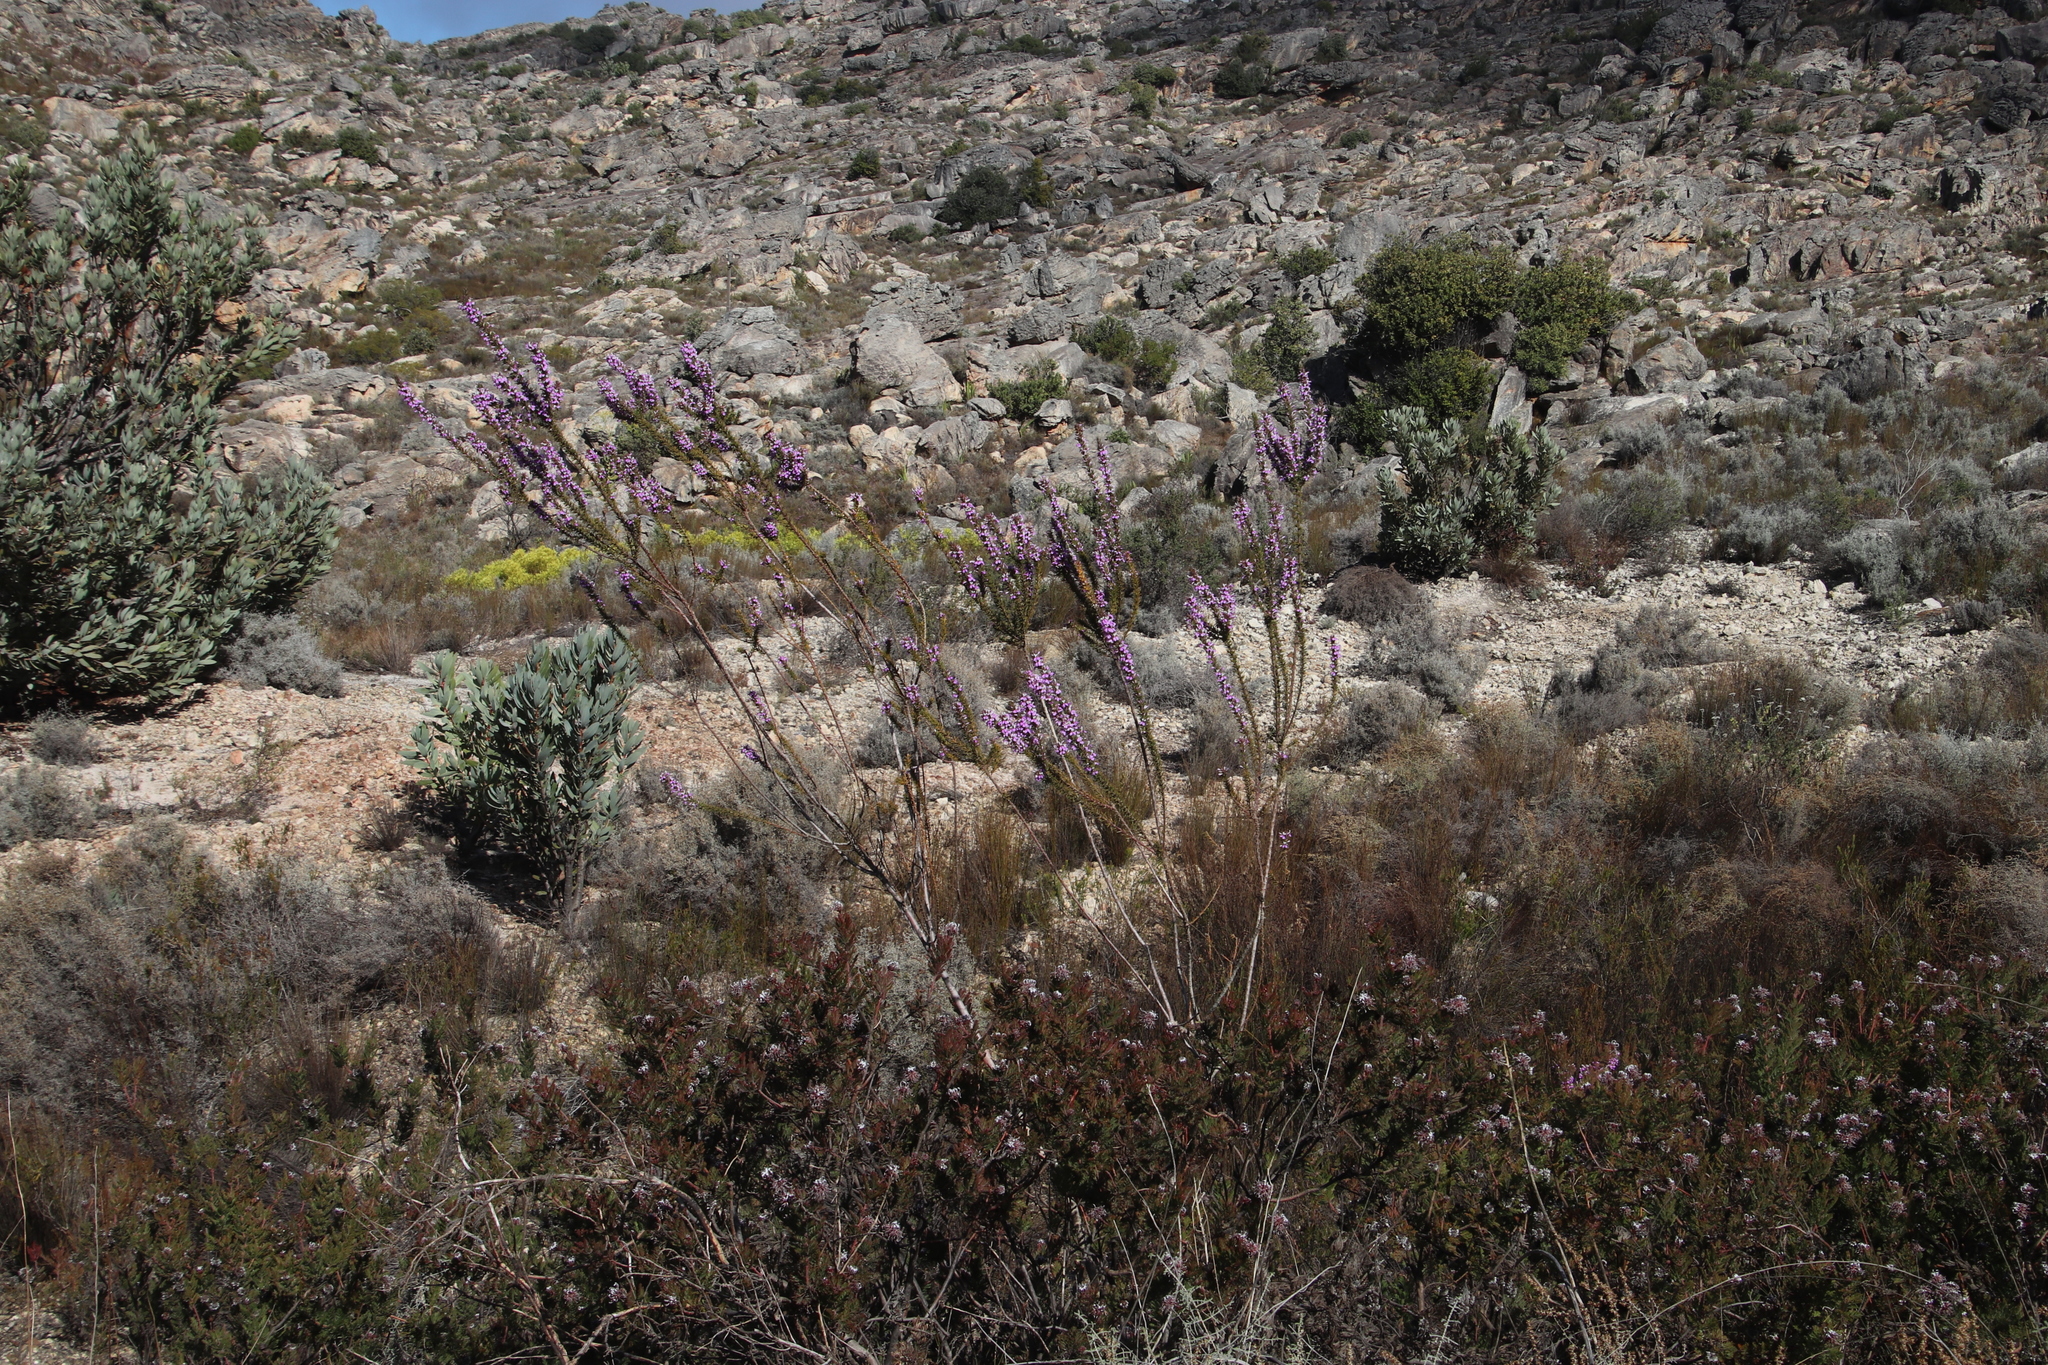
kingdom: Plantae
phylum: Tracheophyta
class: Magnoliopsida
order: Fabales
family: Polygalaceae
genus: Muraltia
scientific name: Muraltia heisteria
